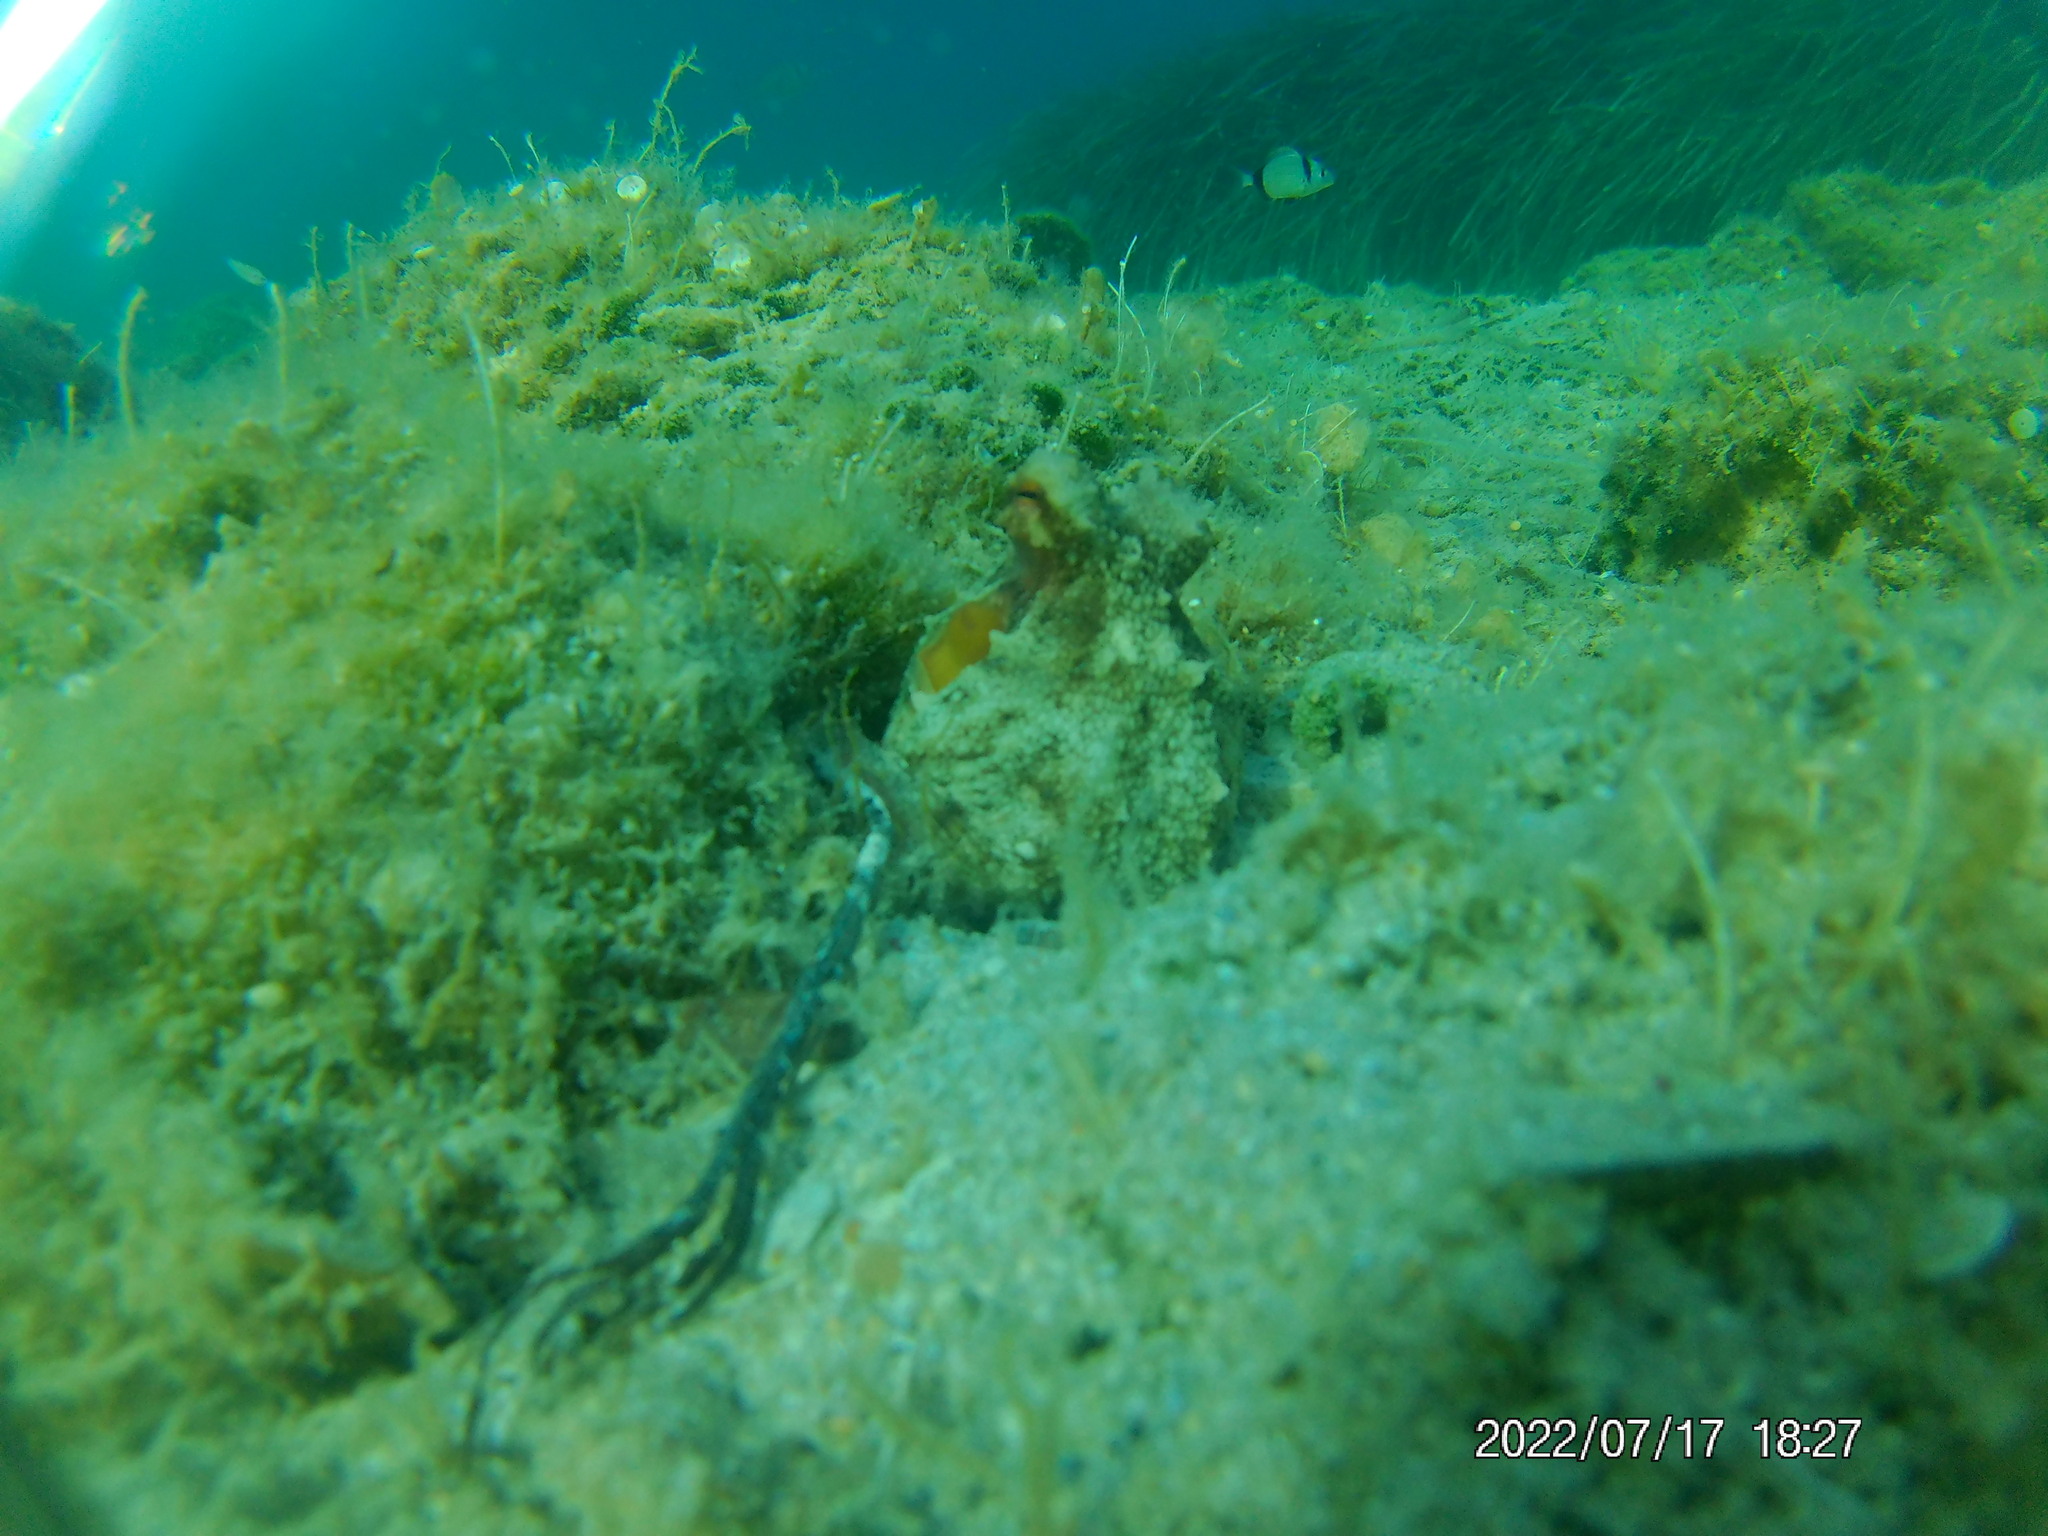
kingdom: Animalia
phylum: Mollusca
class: Cephalopoda
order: Octopoda
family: Octopodidae
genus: Octopus
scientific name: Octopus vulgaris
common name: Common octopus
